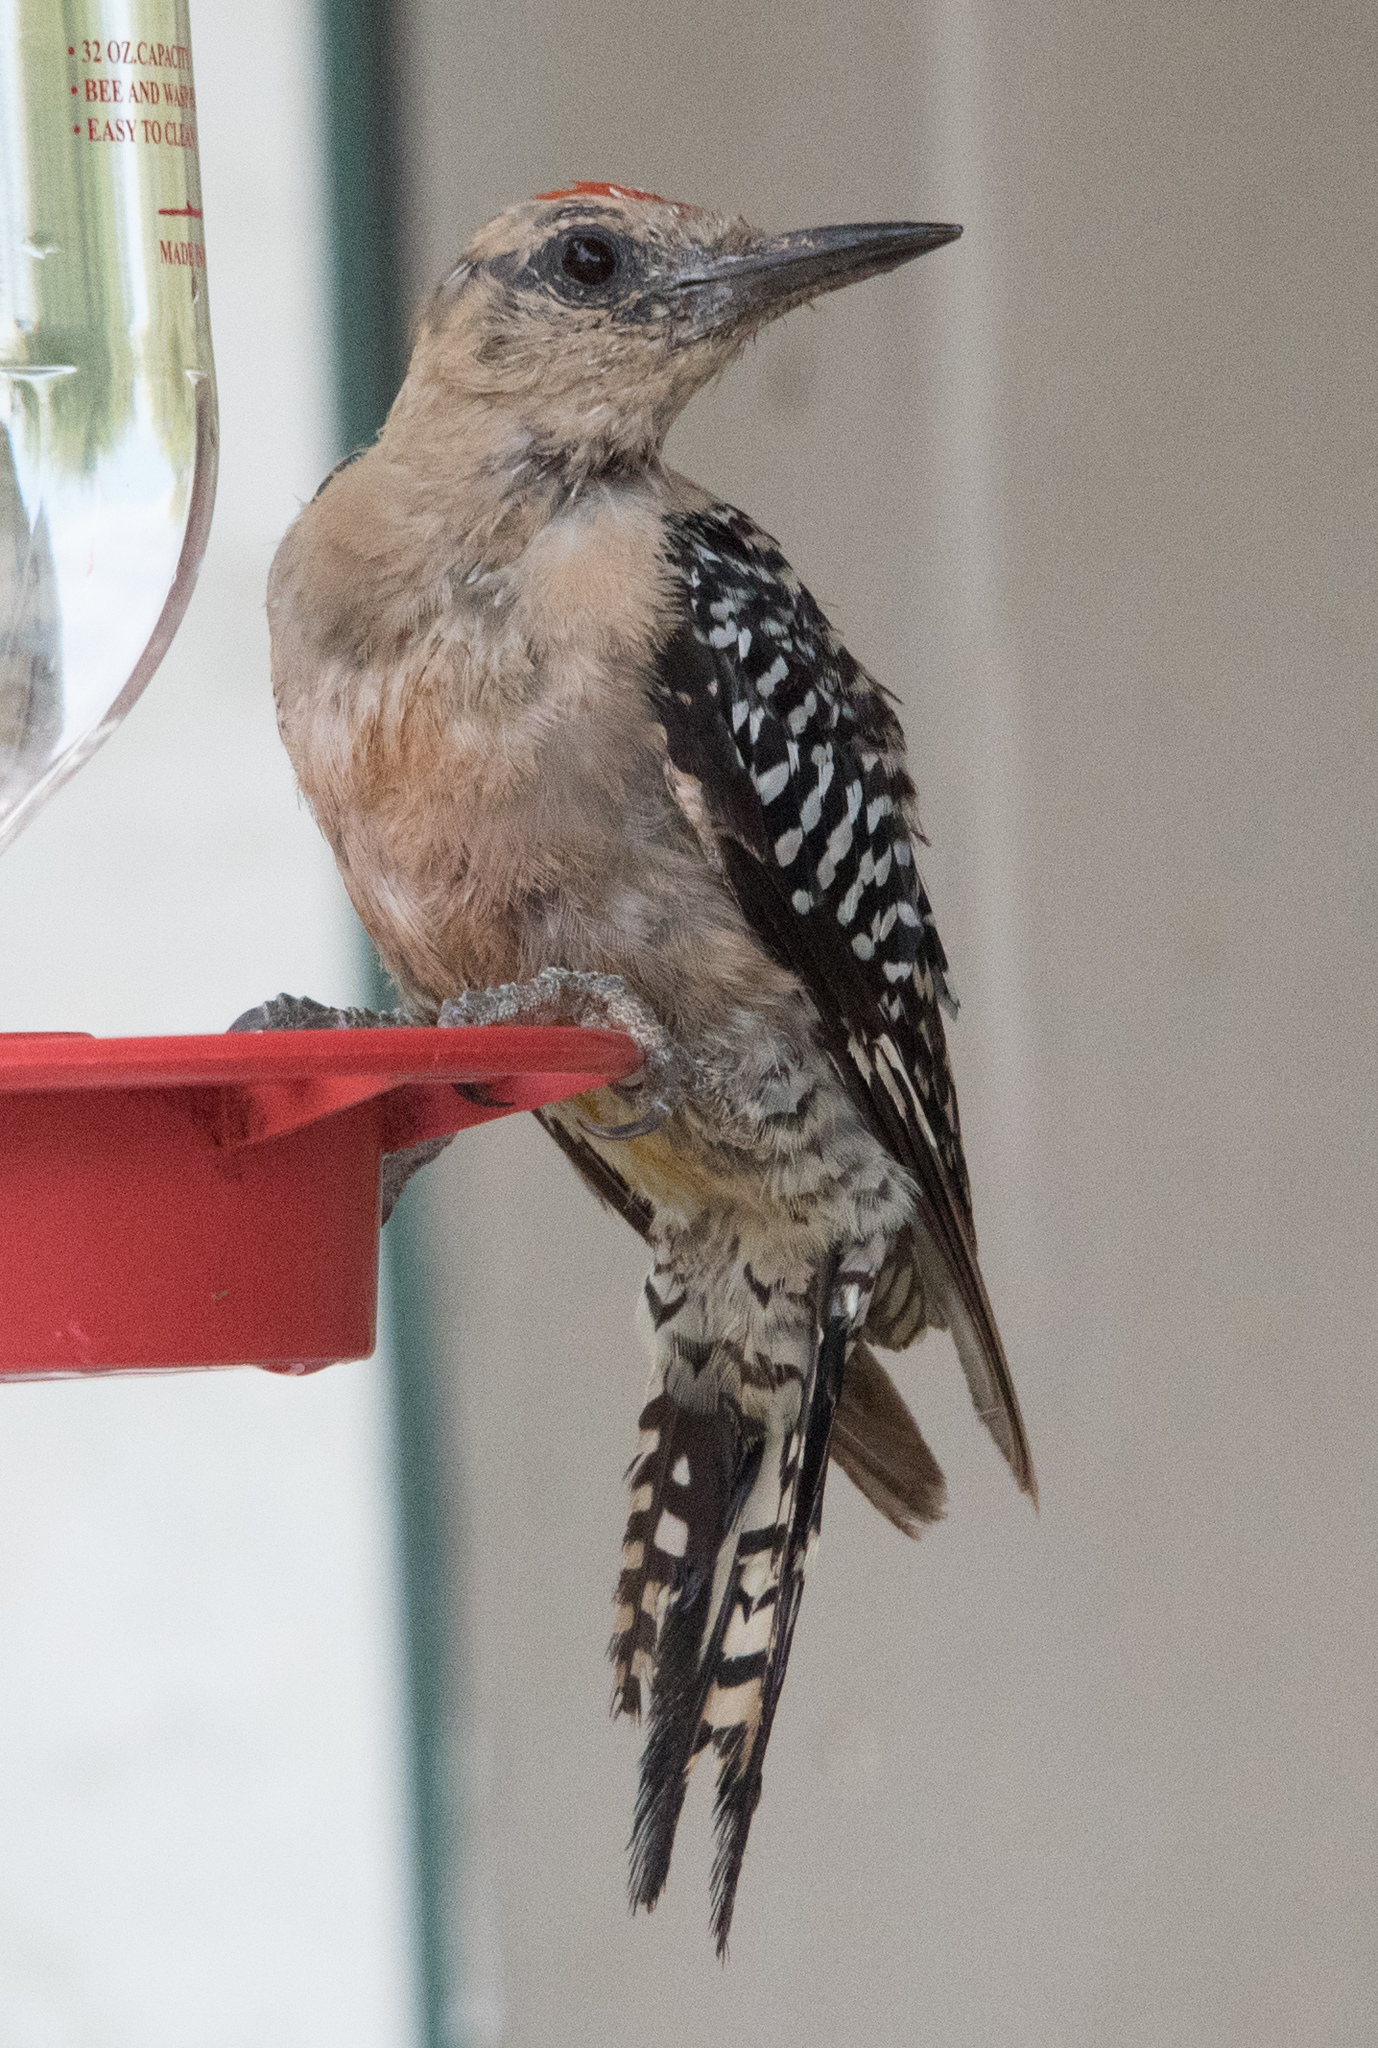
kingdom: Animalia
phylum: Chordata
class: Aves
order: Piciformes
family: Picidae
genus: Melanerpes
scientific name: Melanerpes uropygialis
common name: Gila woodpecker
